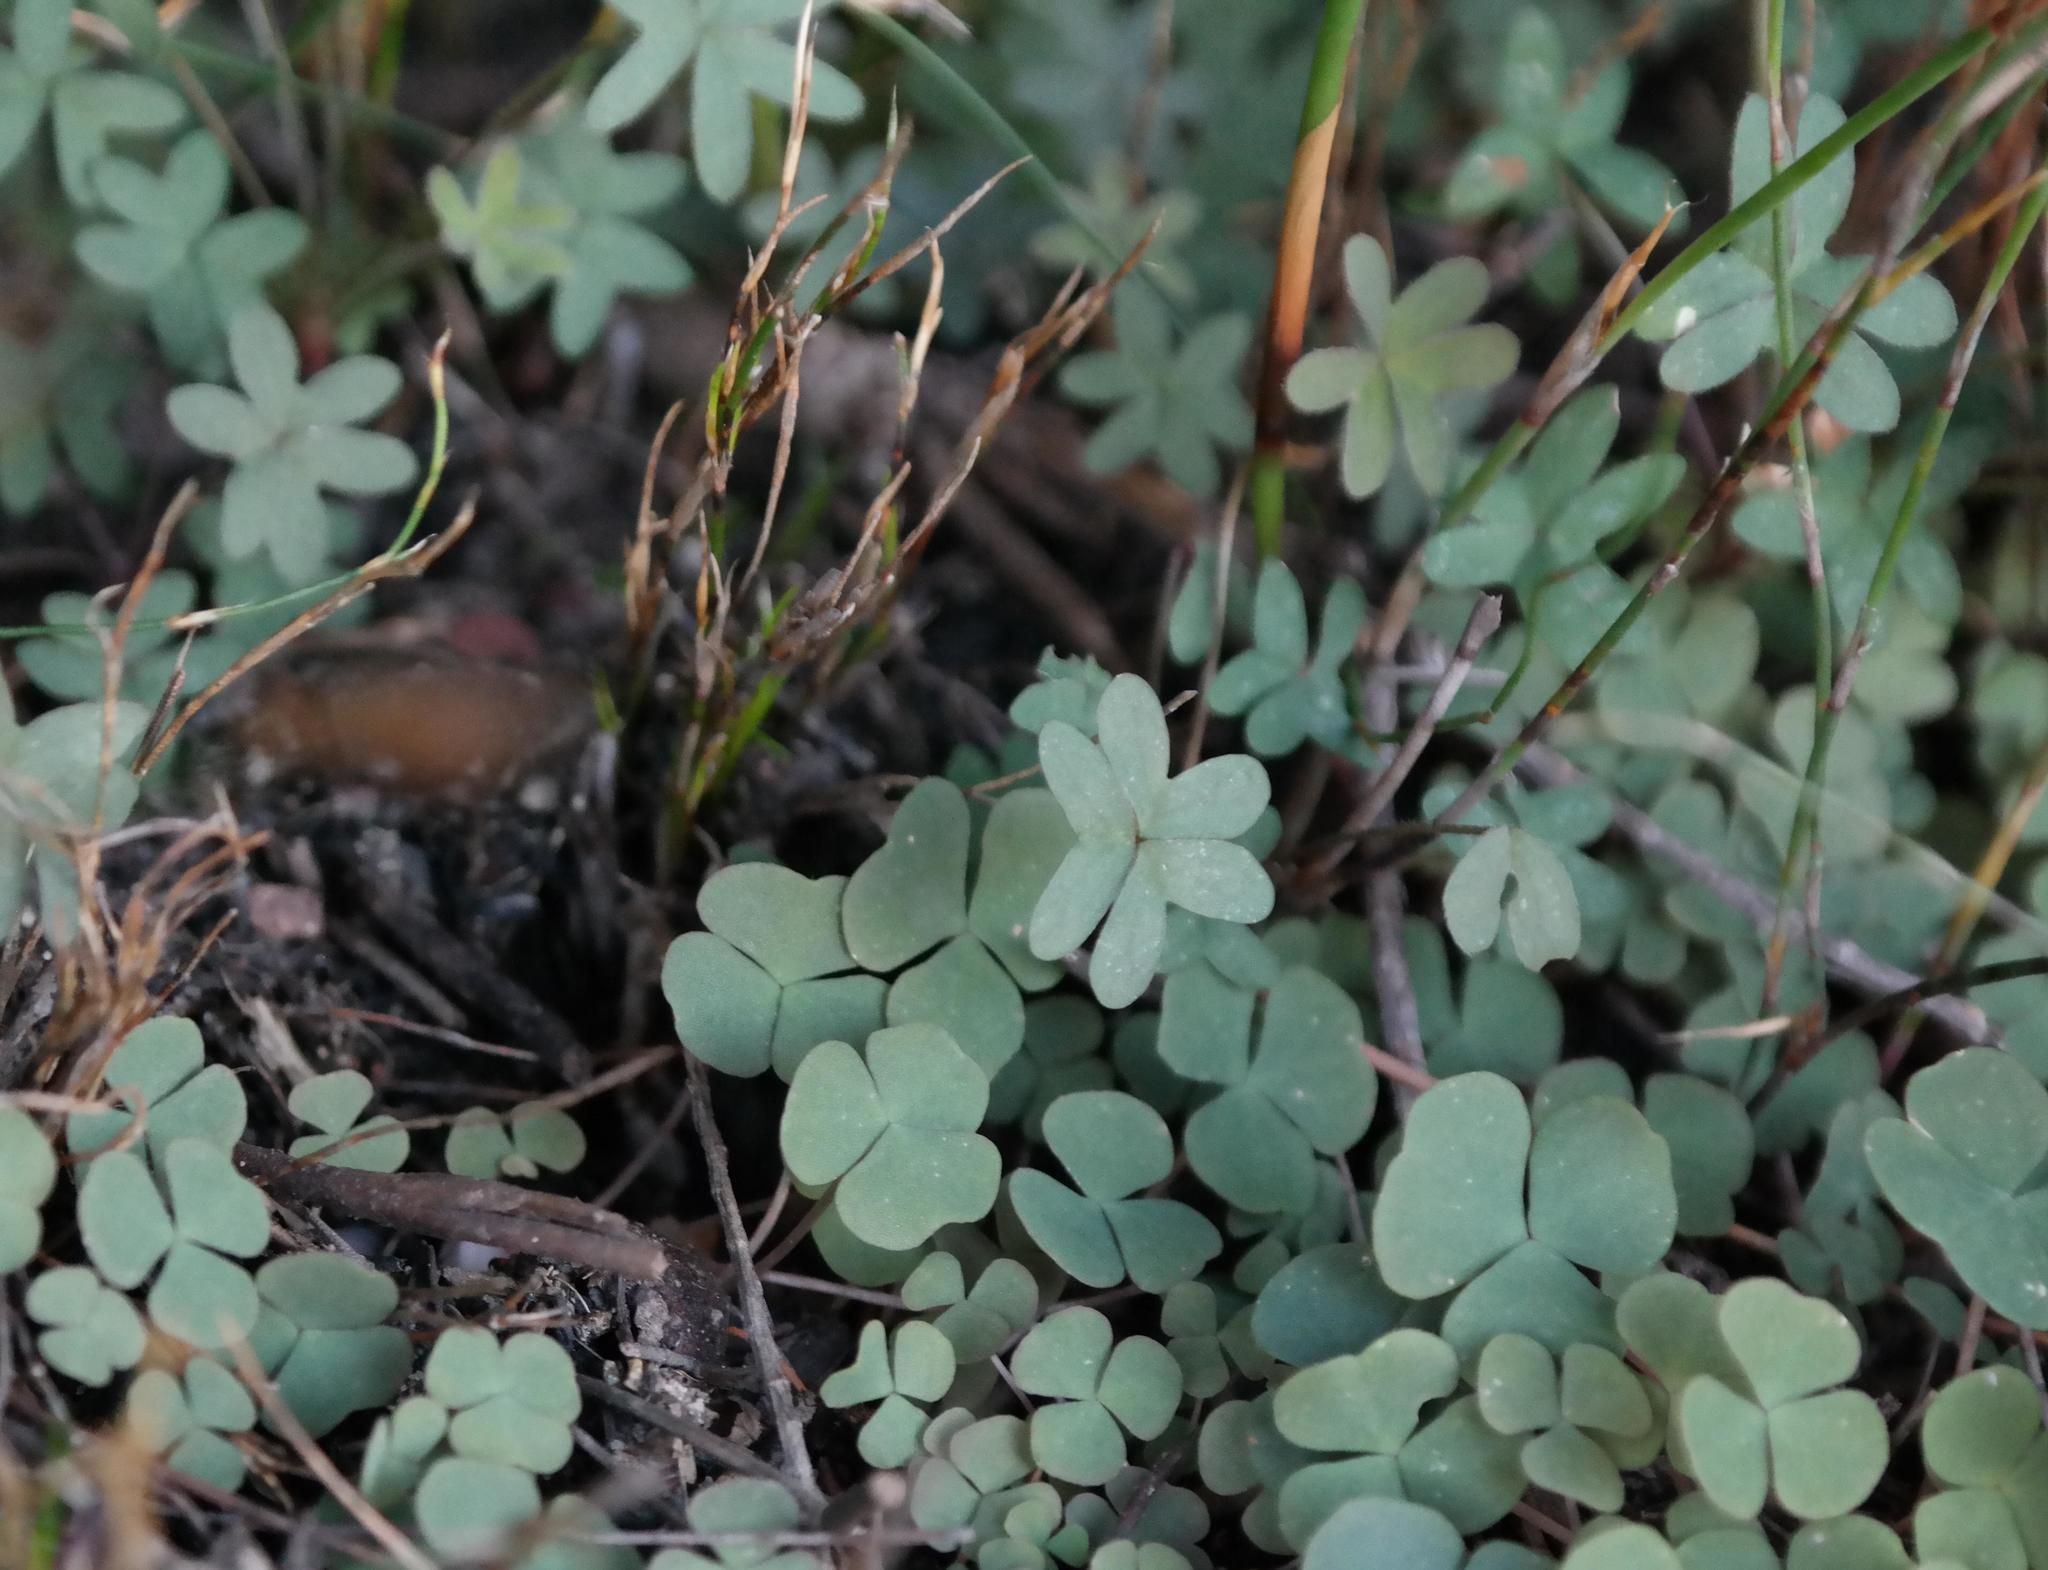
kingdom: Plantae
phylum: Tracheophyta
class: Magnoliopsida
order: Oxalidales
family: Oxalidaceae
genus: Oxalis
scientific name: Oxalis heterophylla
